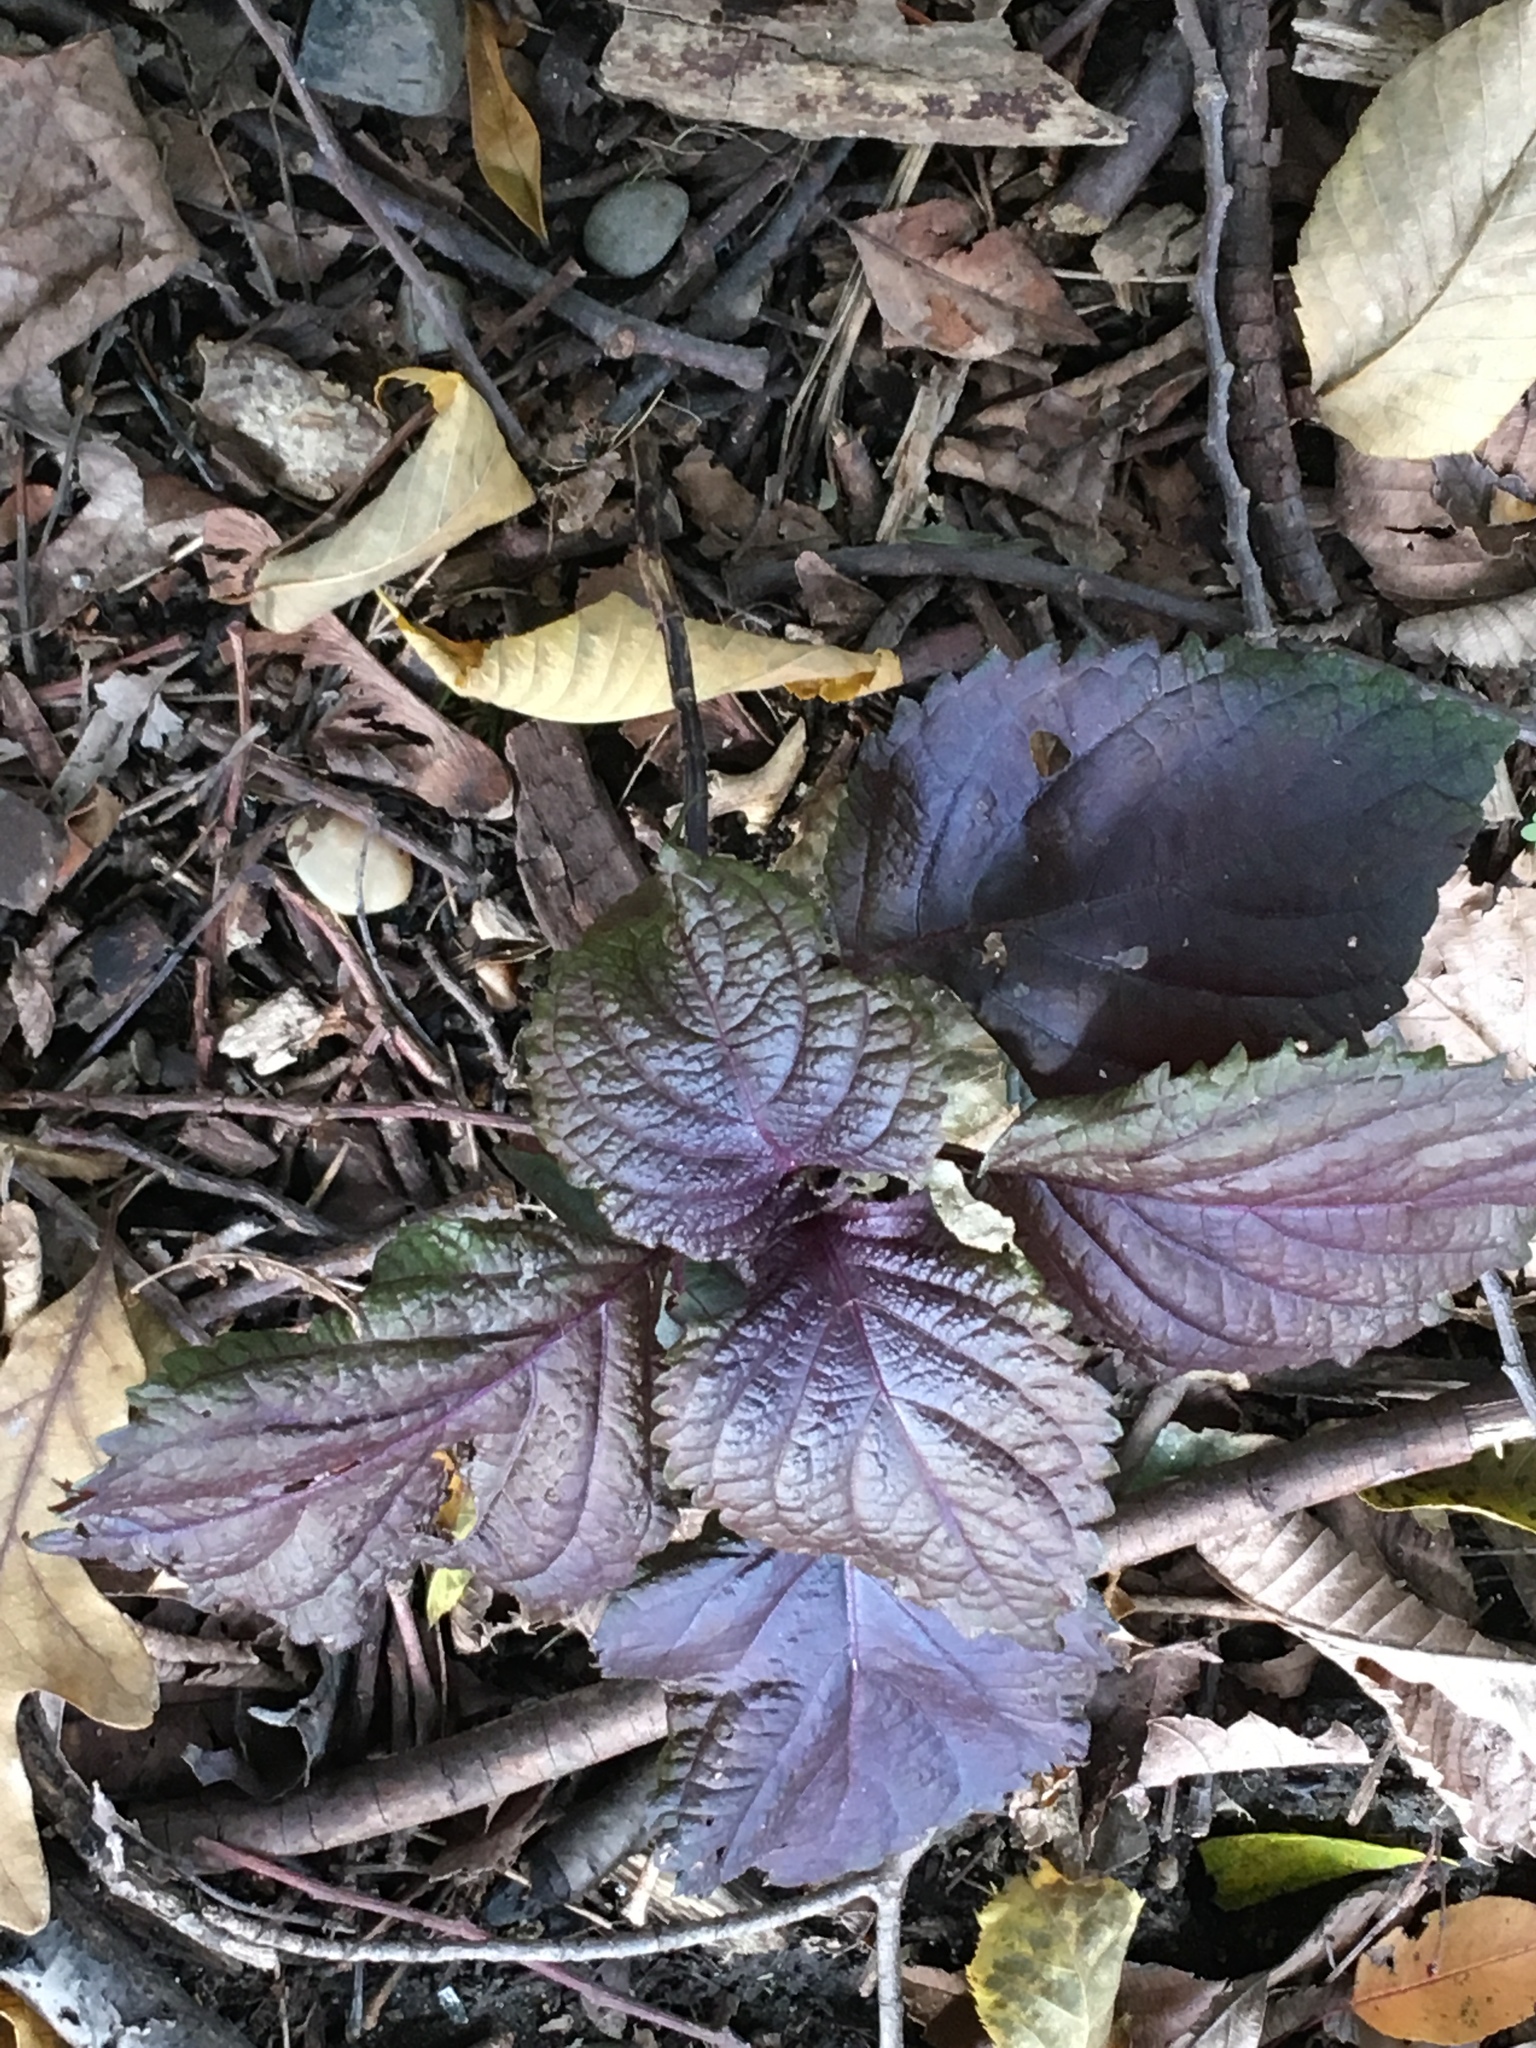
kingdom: Plantae
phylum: Tracheophyta
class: Magnoliopsida
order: Lamiales
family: Lamiaceae
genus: Perilla
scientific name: Perilla frutescens
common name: Perilla
